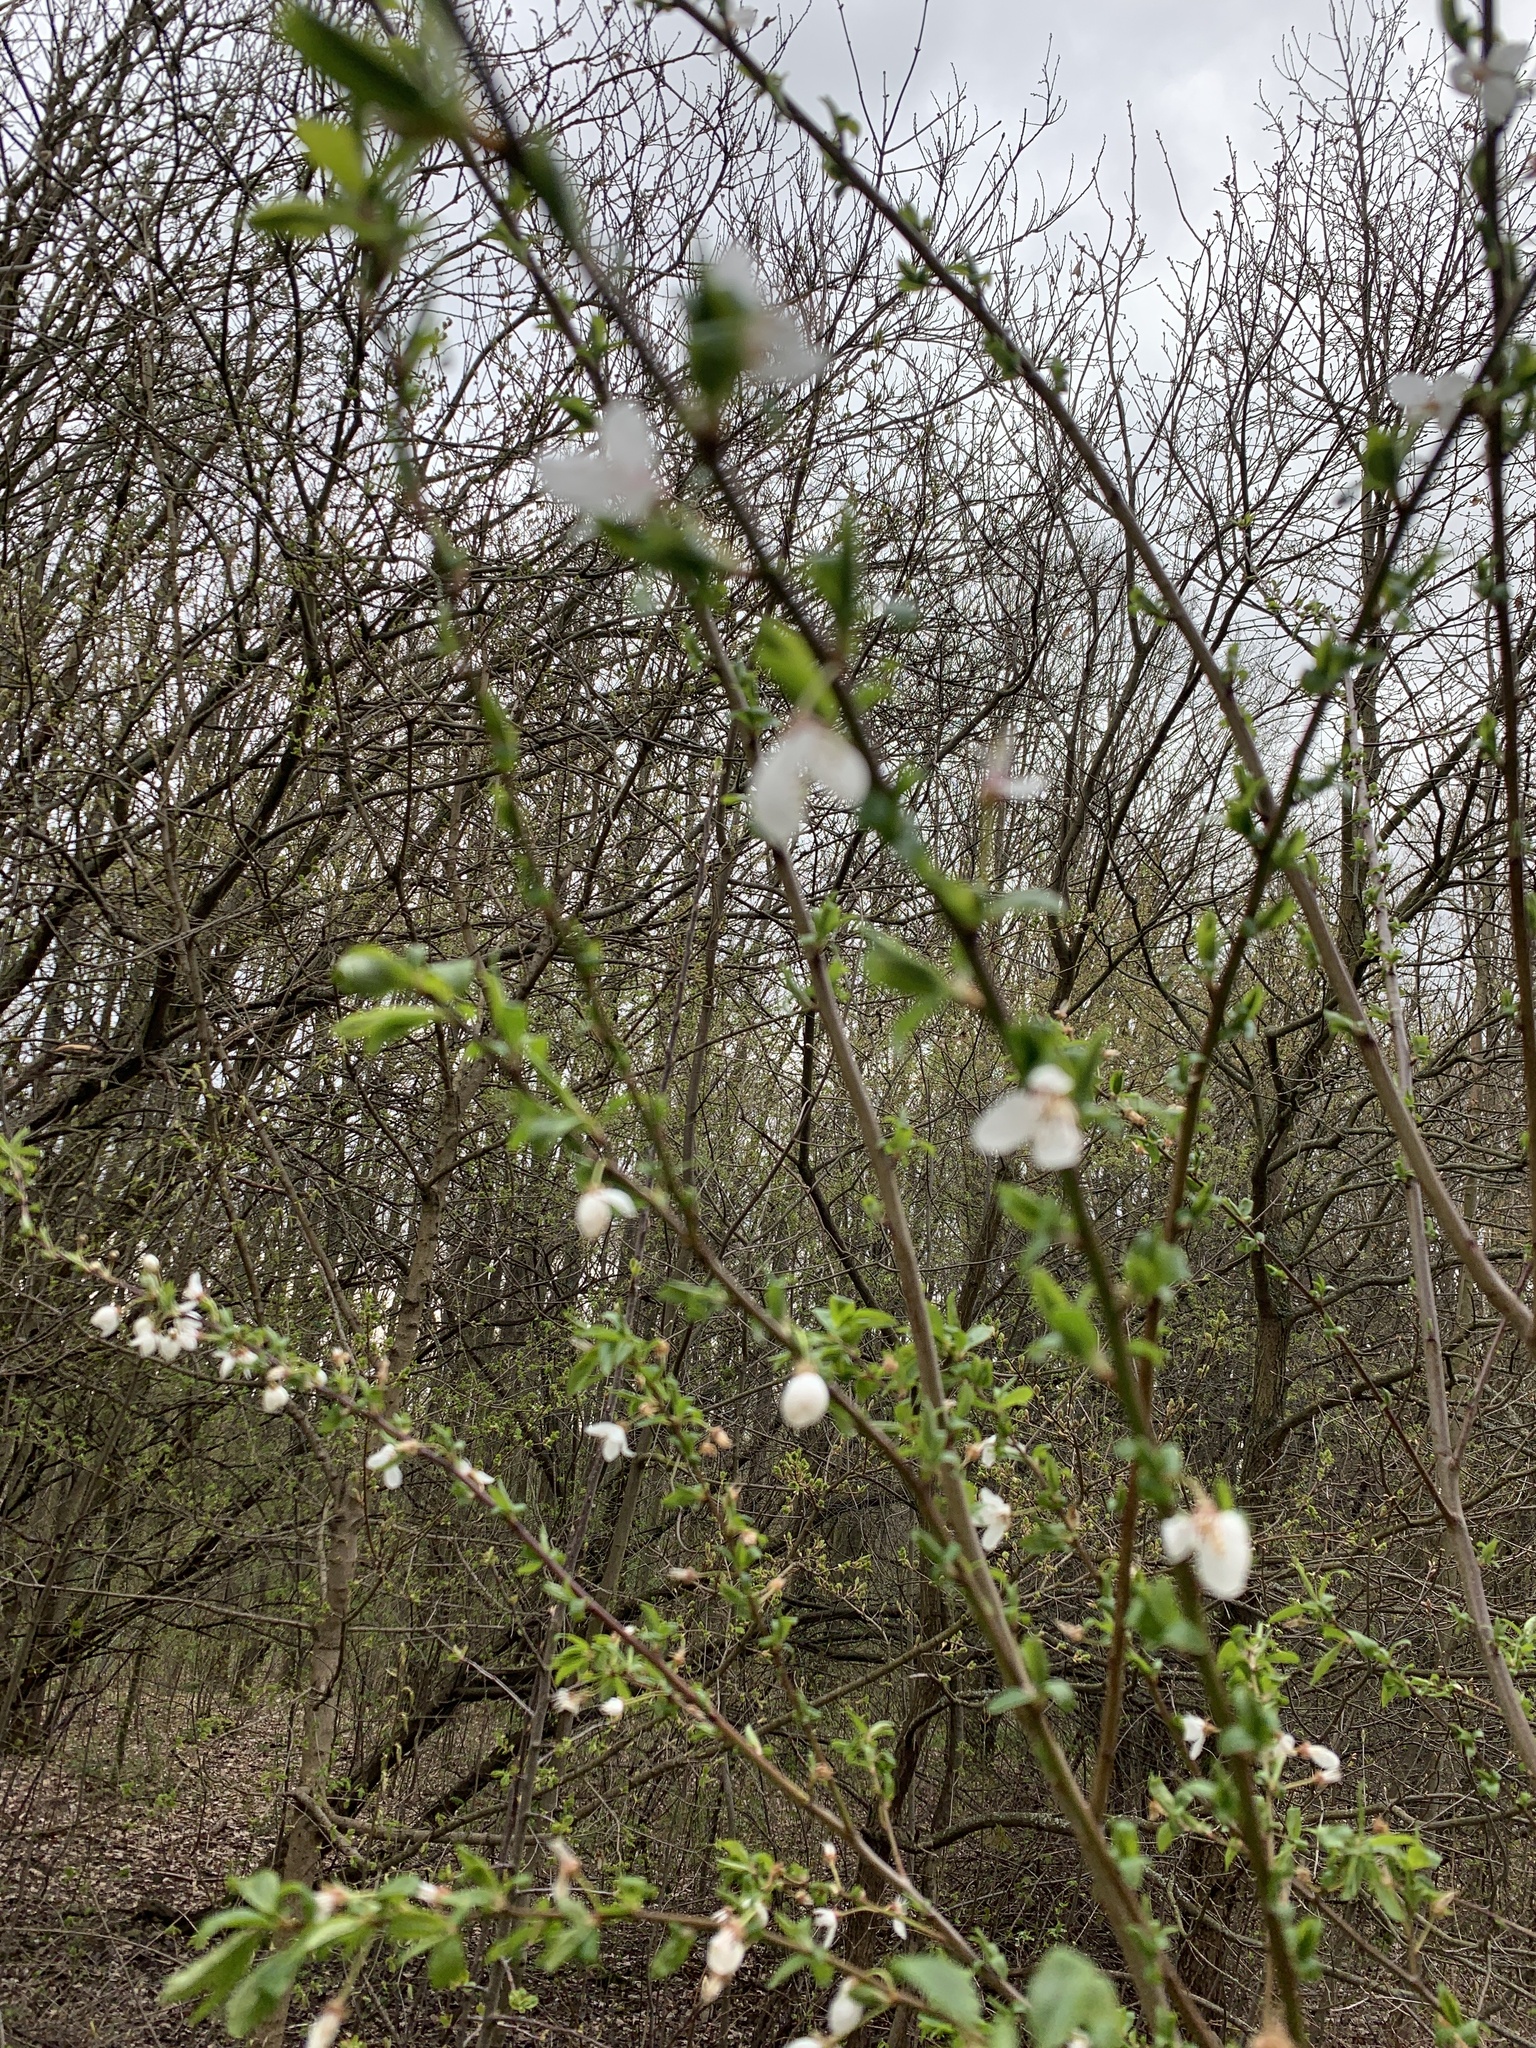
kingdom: Plantae
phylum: Tracheophyta
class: Magnoliopsida
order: Rosales
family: Rosaceae
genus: Prunus
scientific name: Prunus cerasifera
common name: Cherry plum
